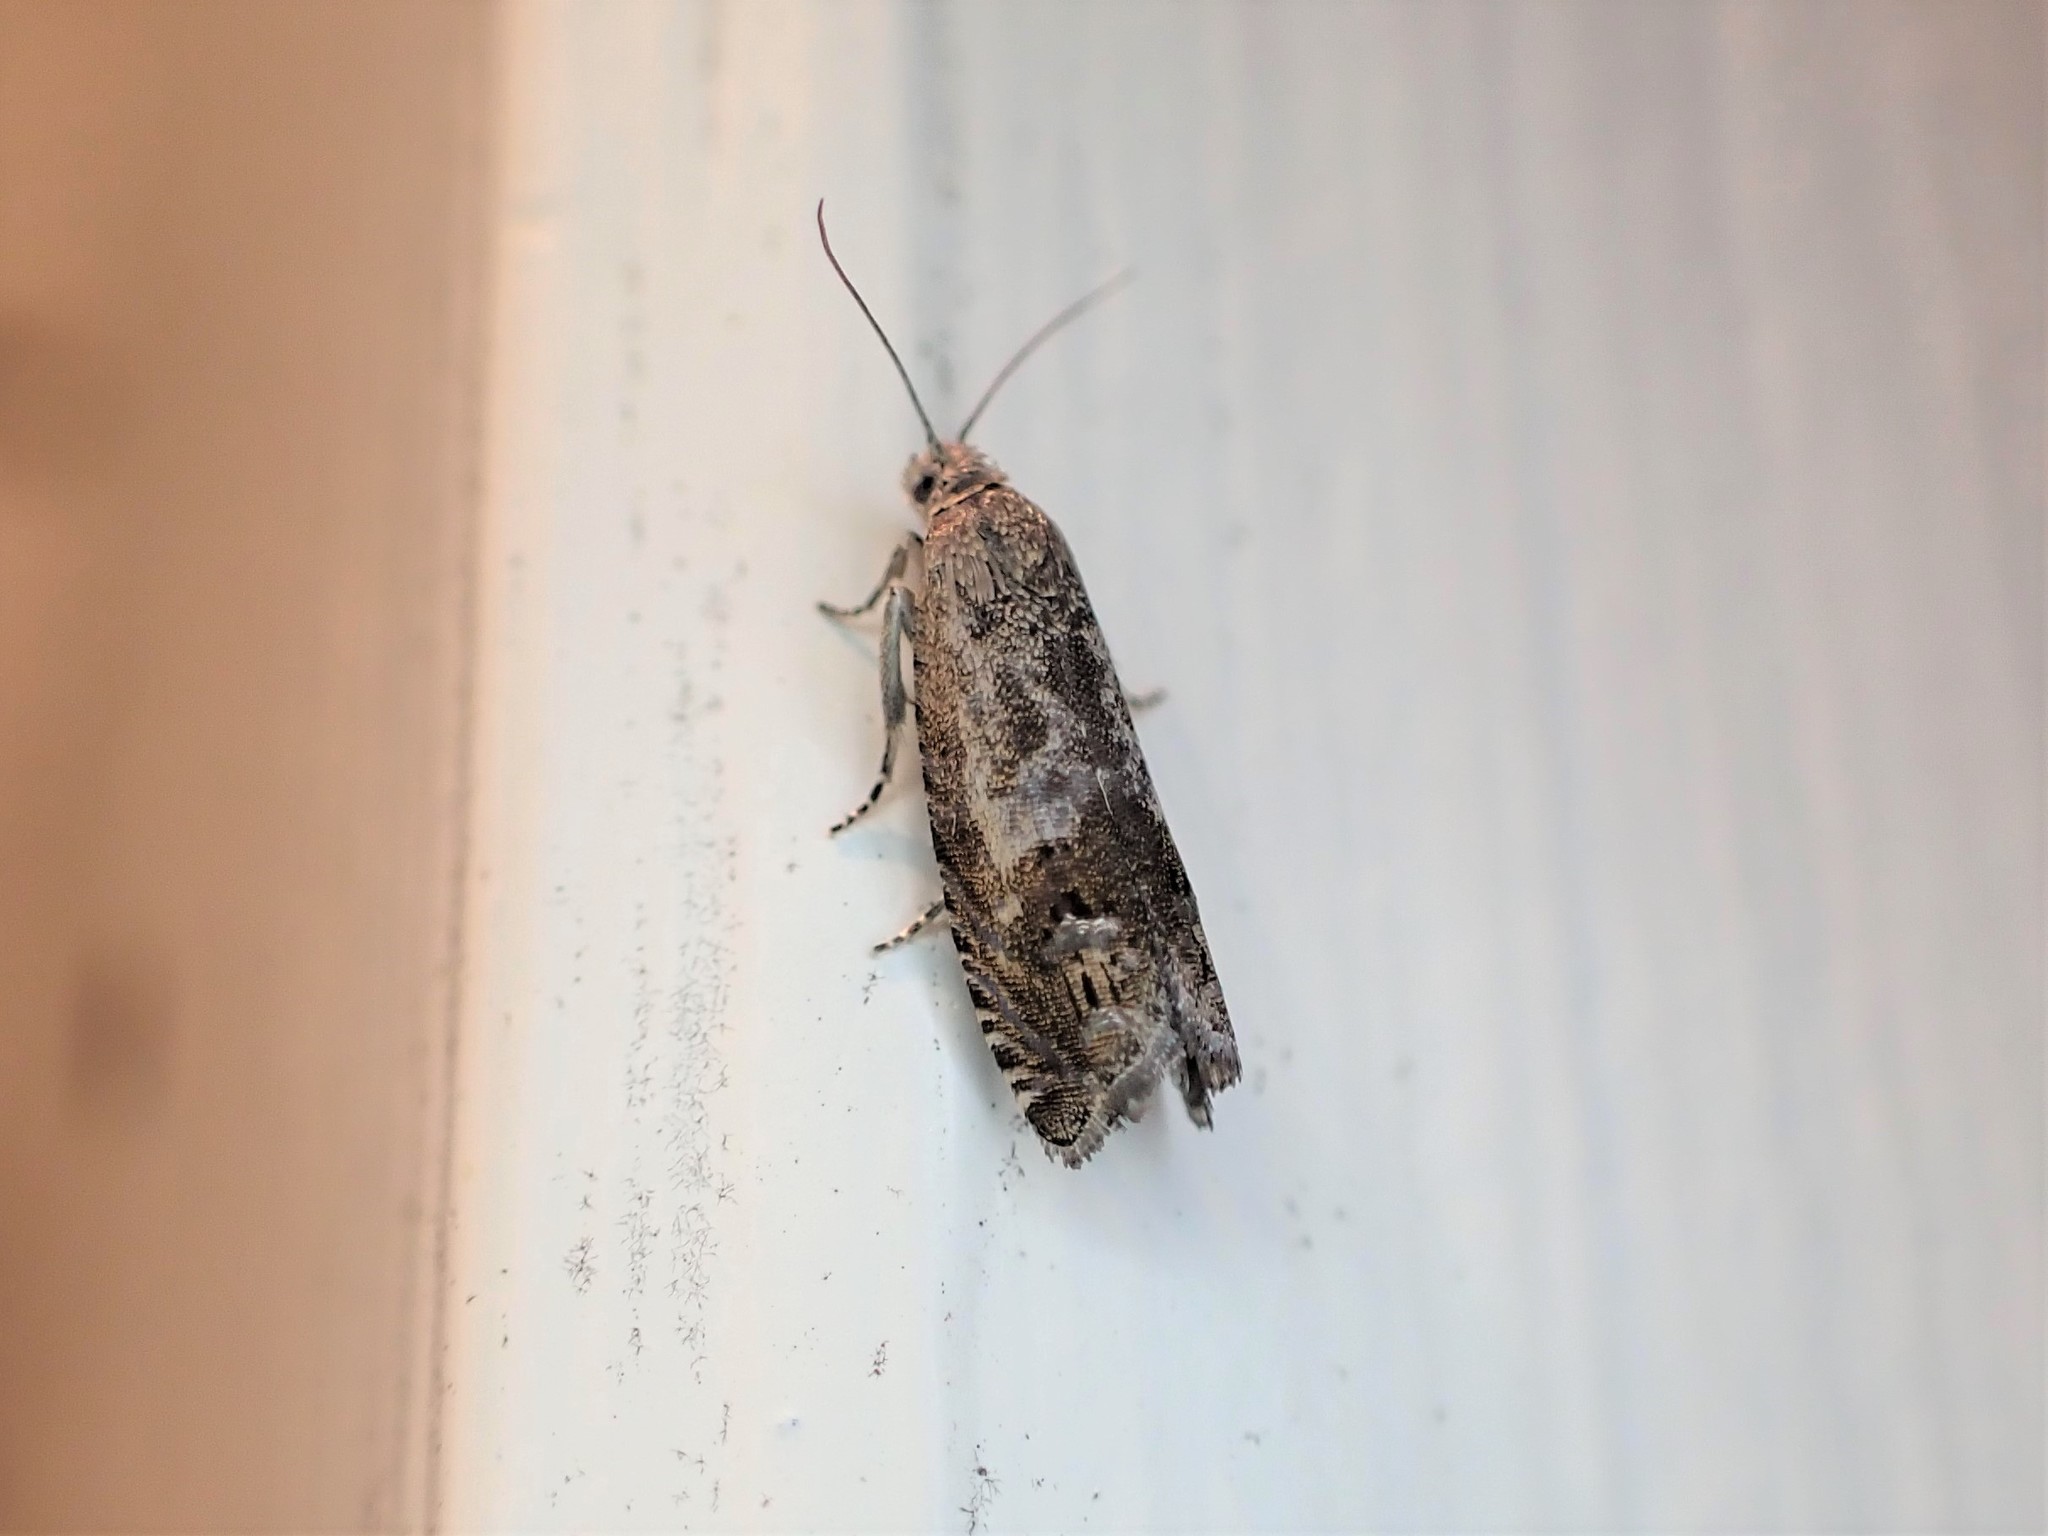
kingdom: Animalia
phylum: Arthropoda
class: Insecta
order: Lepidoptera
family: Tortricidae
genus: Cydia
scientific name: Cydia succedana
